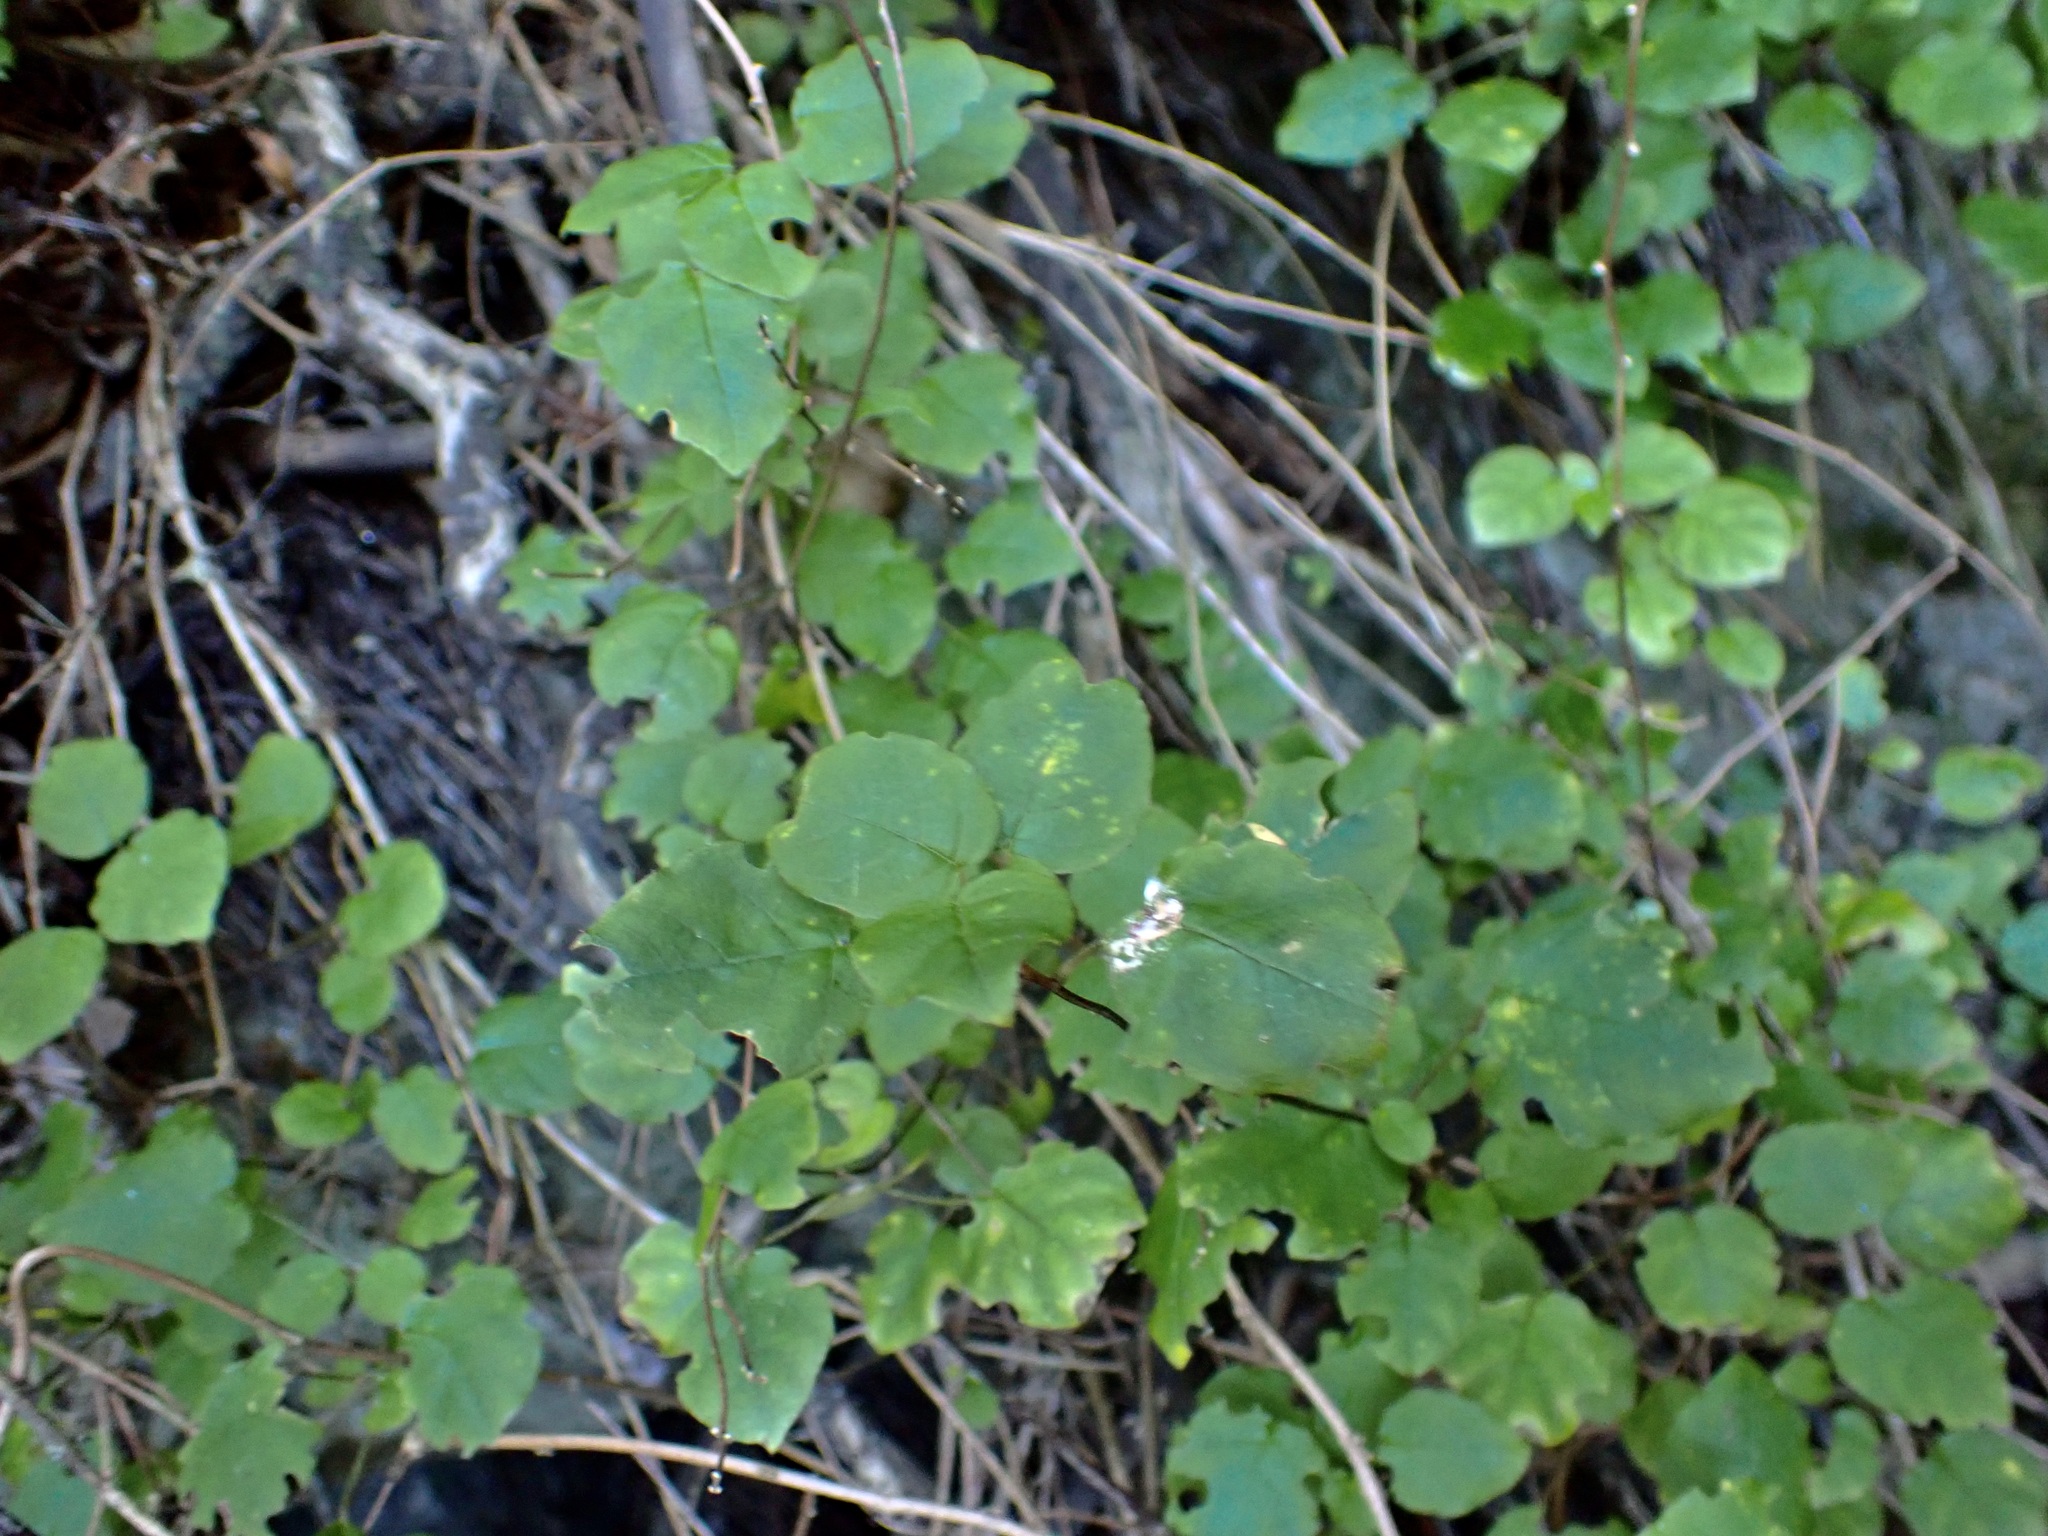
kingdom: Plantae
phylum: Tracheophyta
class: Magnoliopsida
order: Myrtales
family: Onagraceae
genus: Fuchsia
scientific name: Fuchsia perscandens
